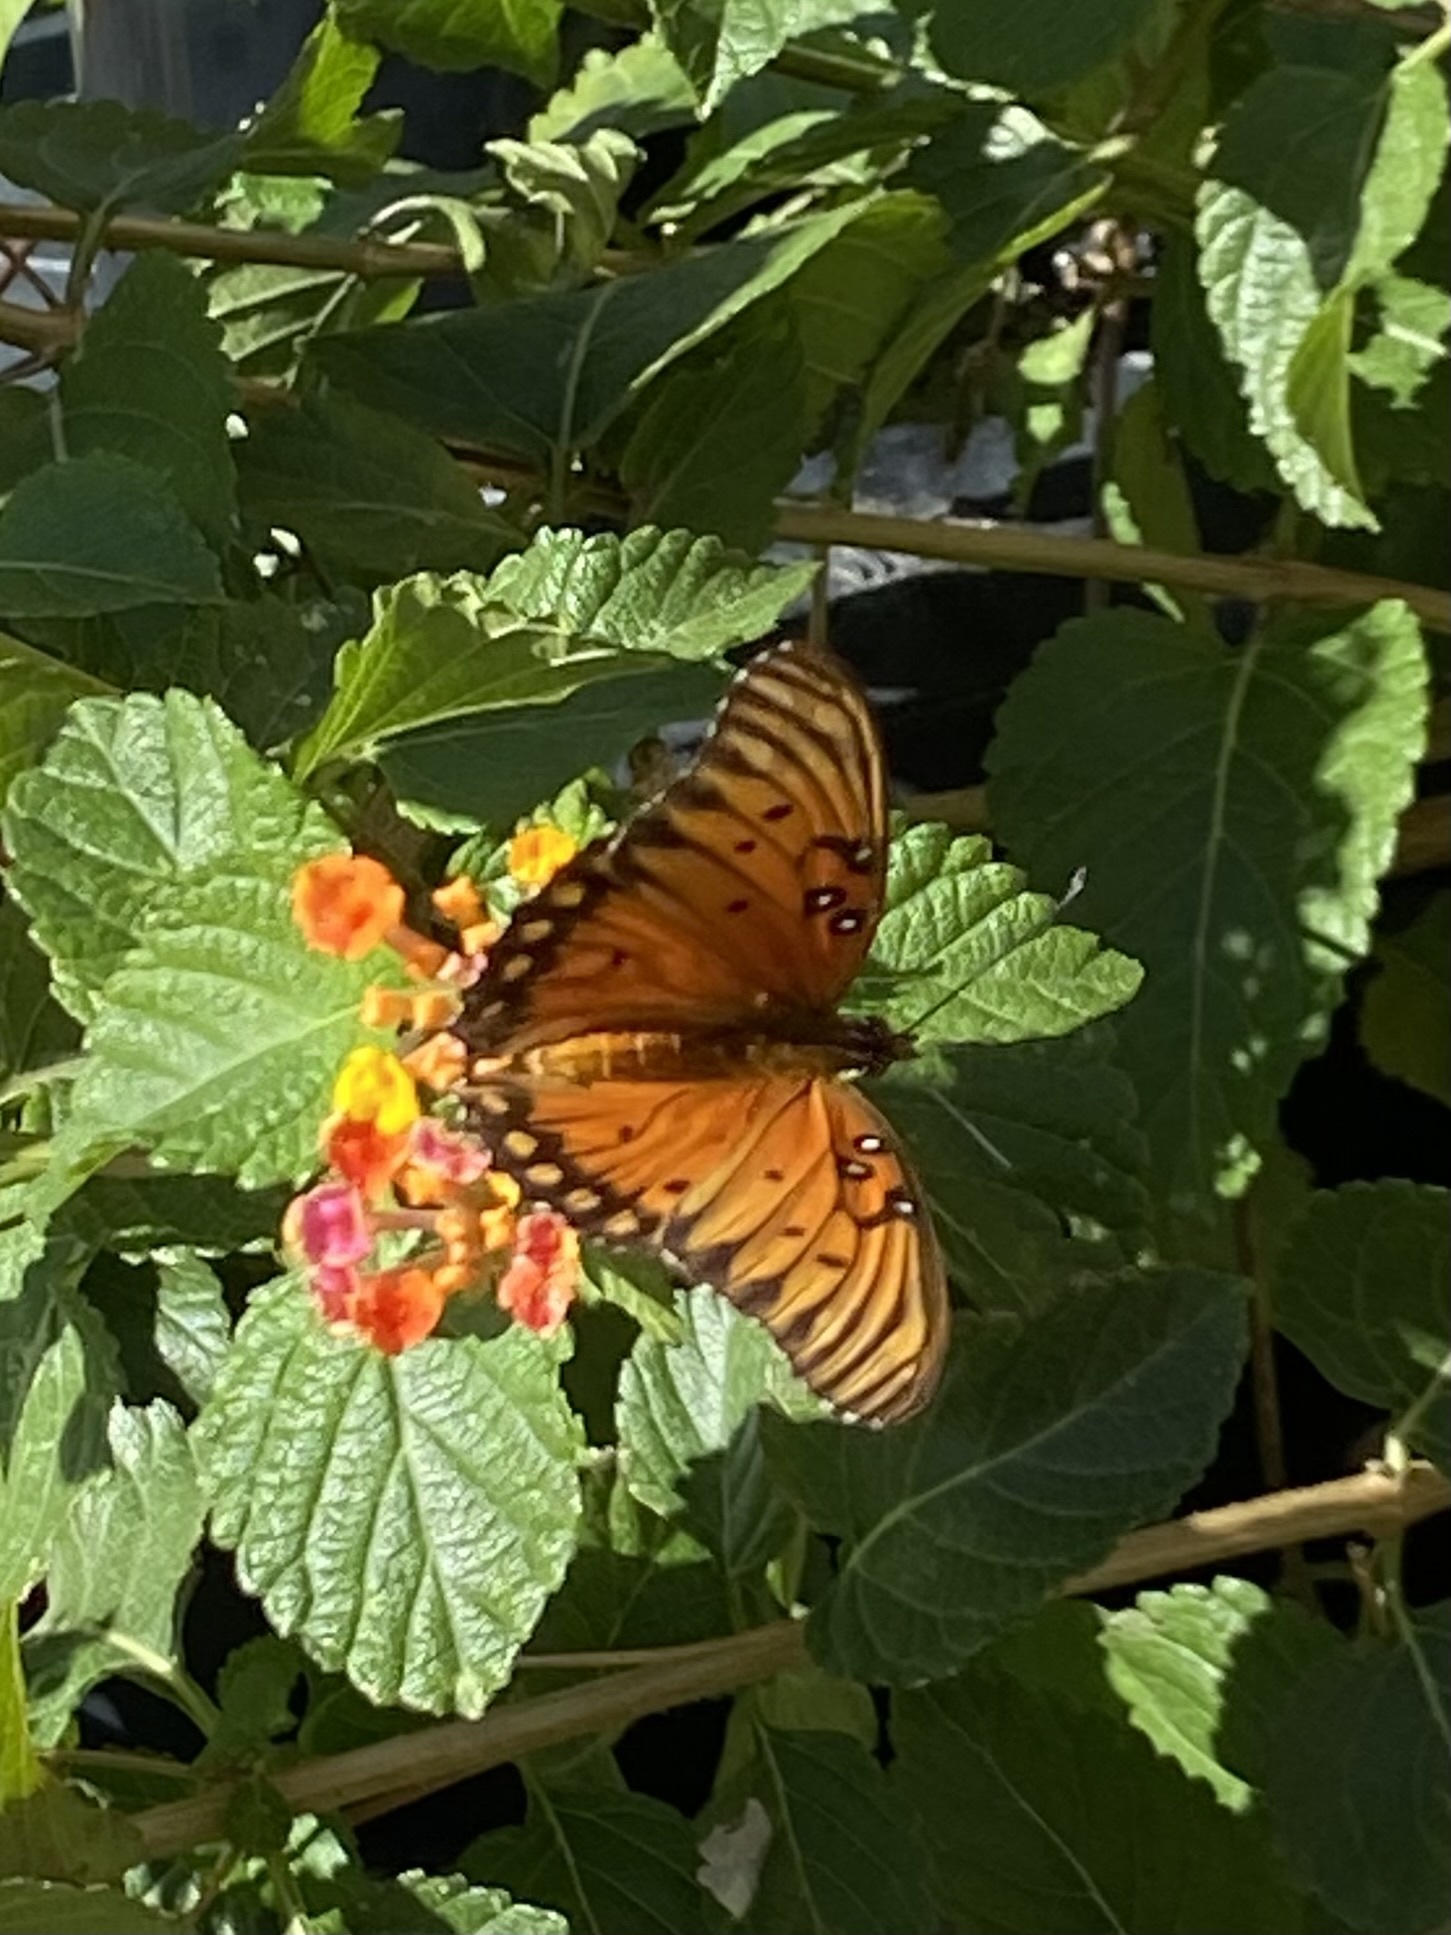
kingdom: Animalia
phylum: Arthropoda
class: Insecta
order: Lepidoptera
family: Nymphalidae
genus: Dione
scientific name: Dione vanillae
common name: Gulf fritillary
